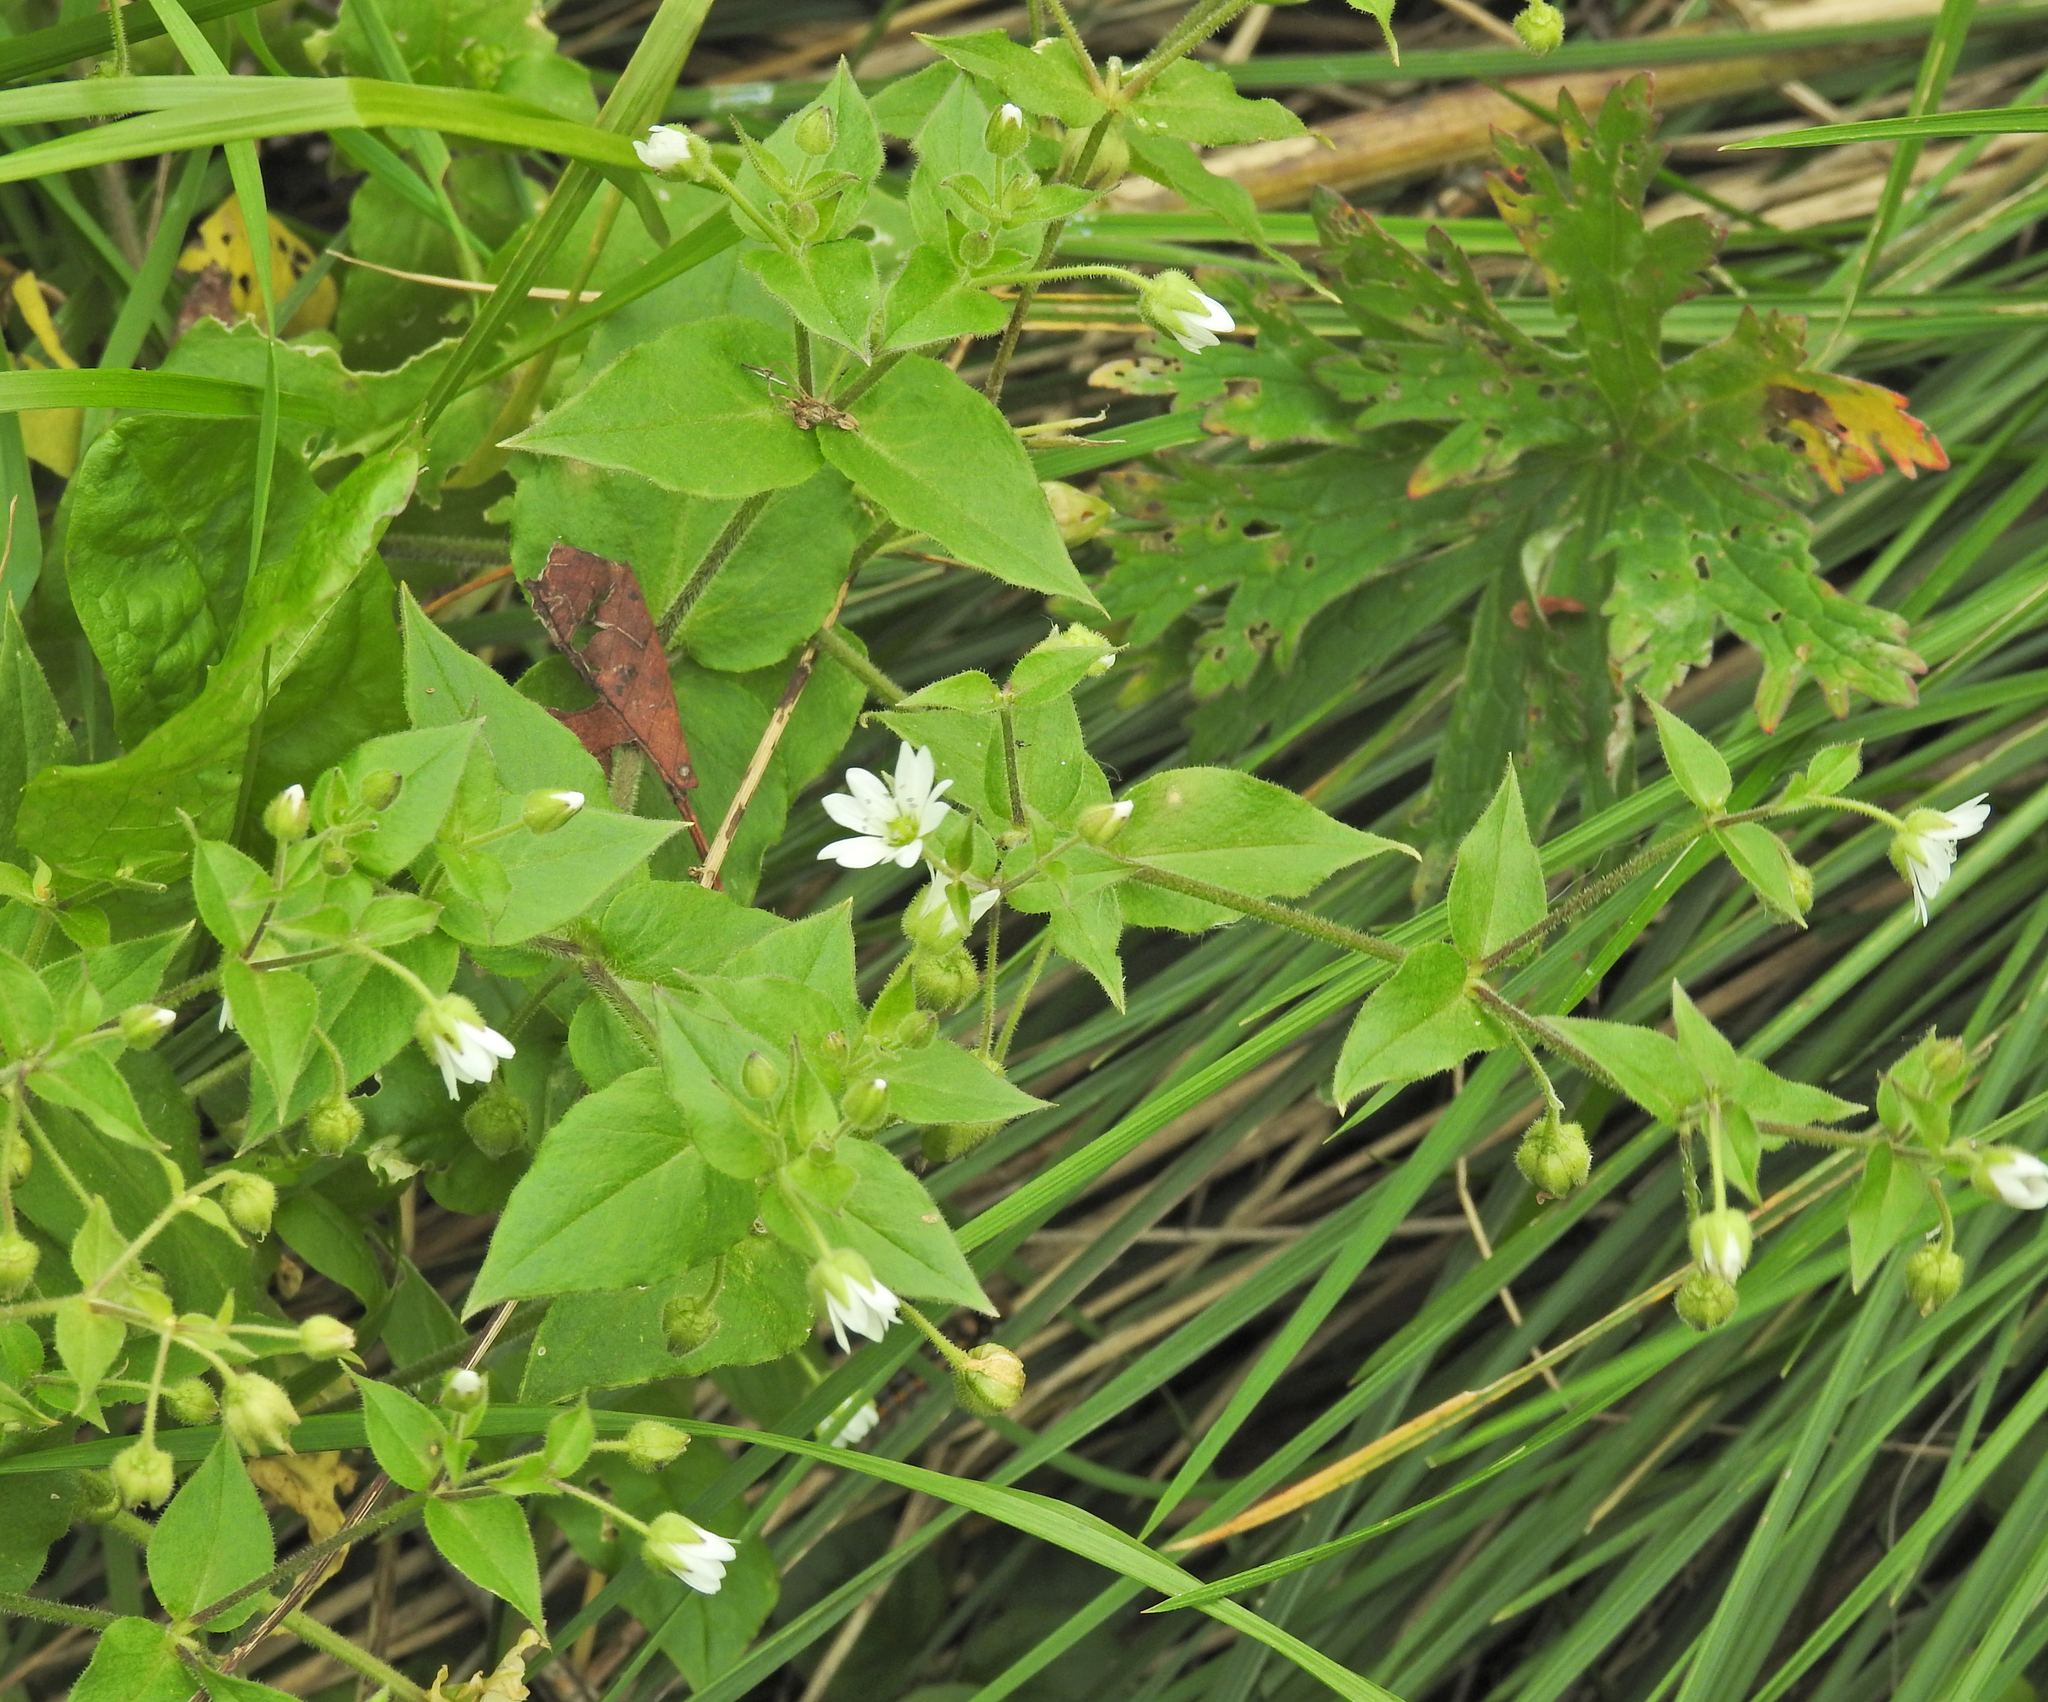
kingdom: Plantae
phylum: Tracheophyta
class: Magnoliopsida
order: Caryophyllales
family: Caryophyllaceae
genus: Stellaria
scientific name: Stellaria aquatica
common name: Water chickweed
